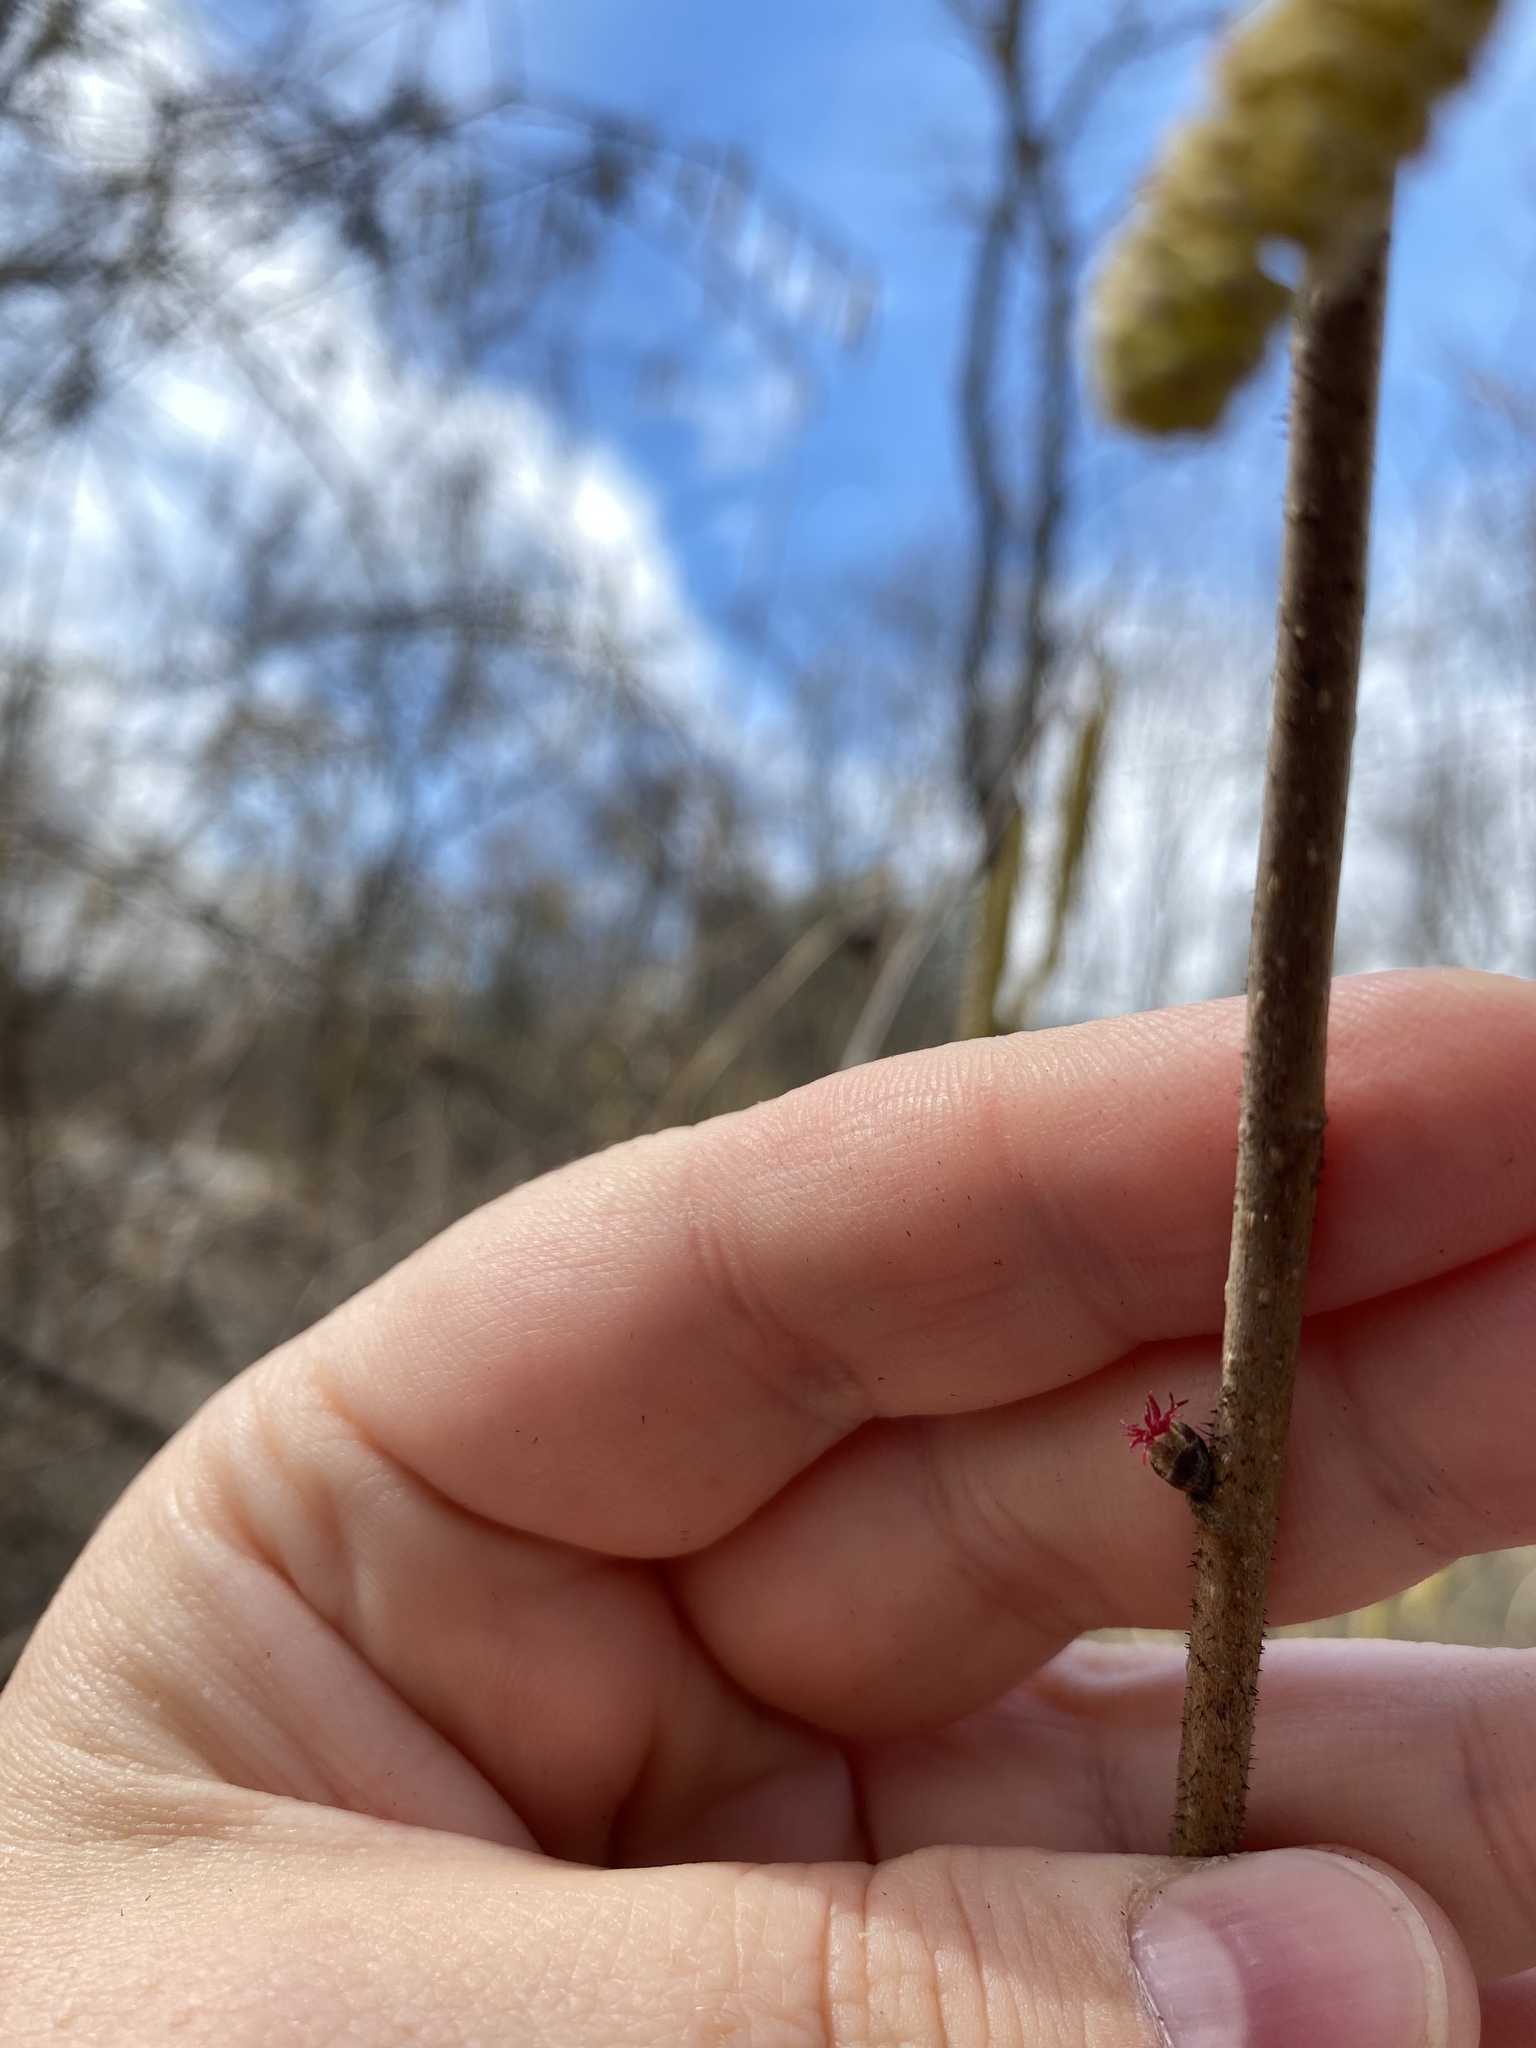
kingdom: Plantae
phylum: Tracheophyta
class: Magnoliopsida
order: Fagales
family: Betulaceae
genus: Corylus
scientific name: Corylus americana
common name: American hazel
